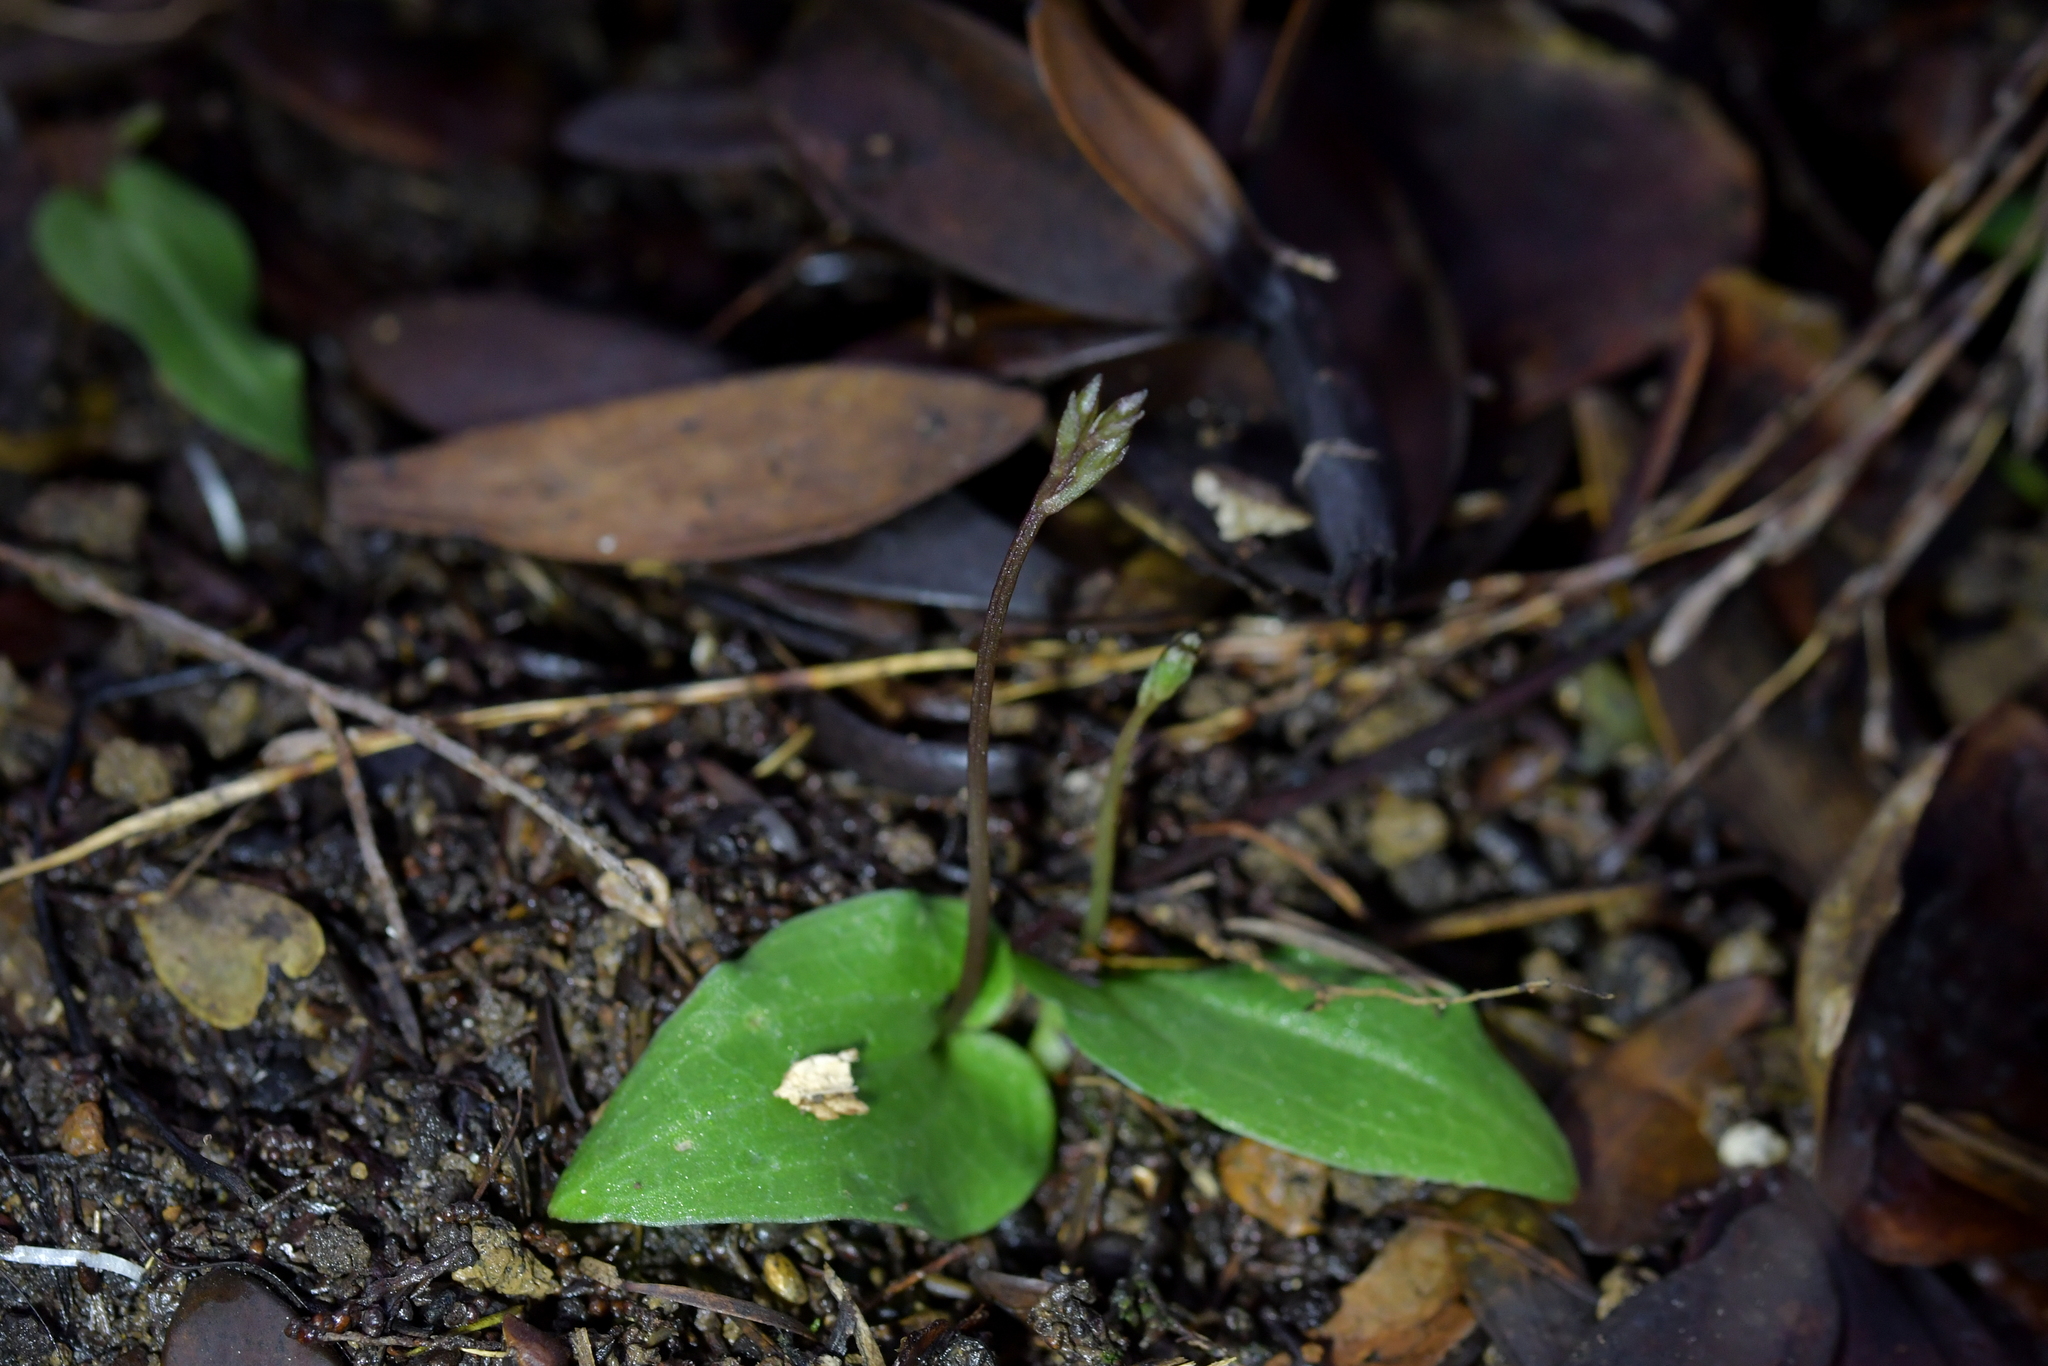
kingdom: Plantae
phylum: Tracheophyta
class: Liliopsida
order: Asparagales
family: Orchidaceae
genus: Cyrtostylis
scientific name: Cyrtostylis oblonga
